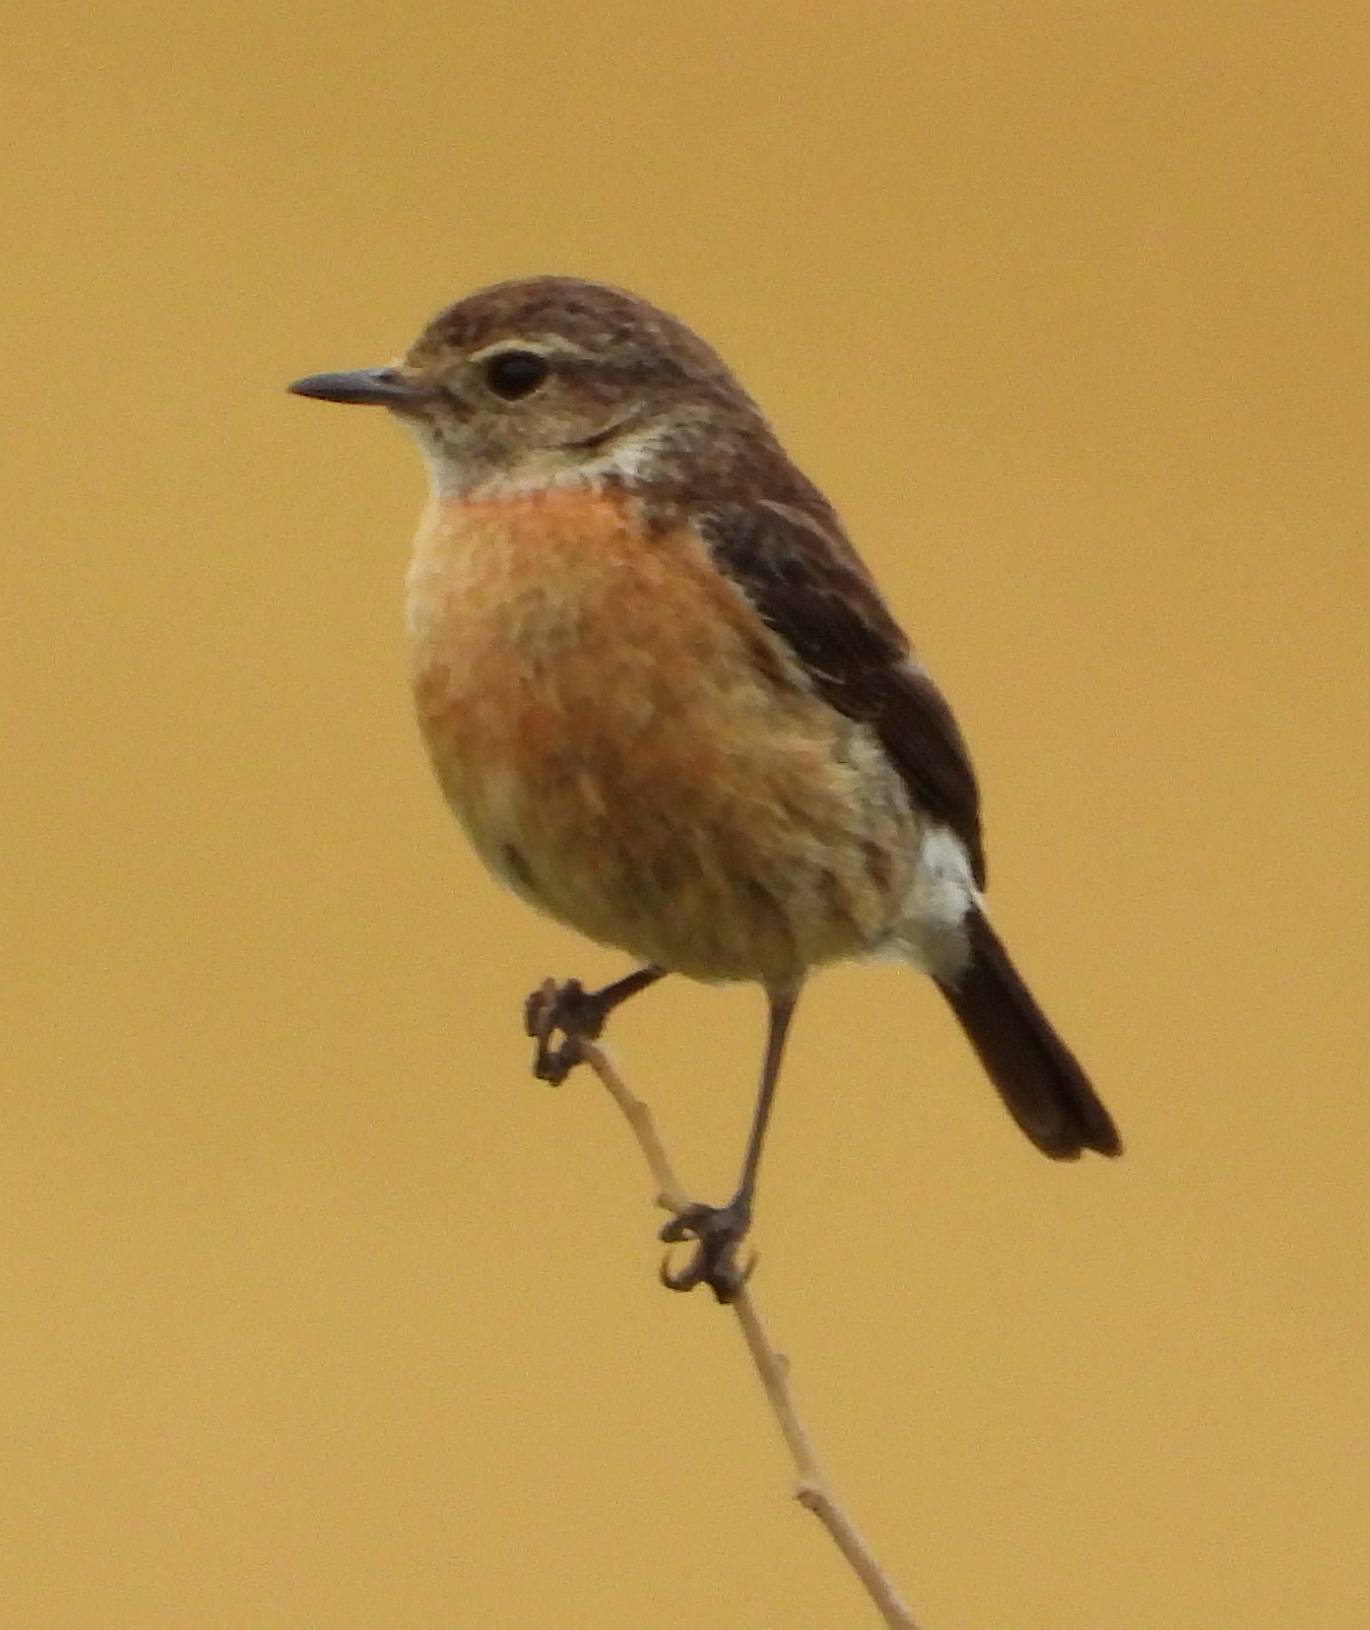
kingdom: Animalia
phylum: Chordata
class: Aves
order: Passeriformes
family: Muscicapidae
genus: Saxicola
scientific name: Saxicola torquatus
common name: African stonechat
